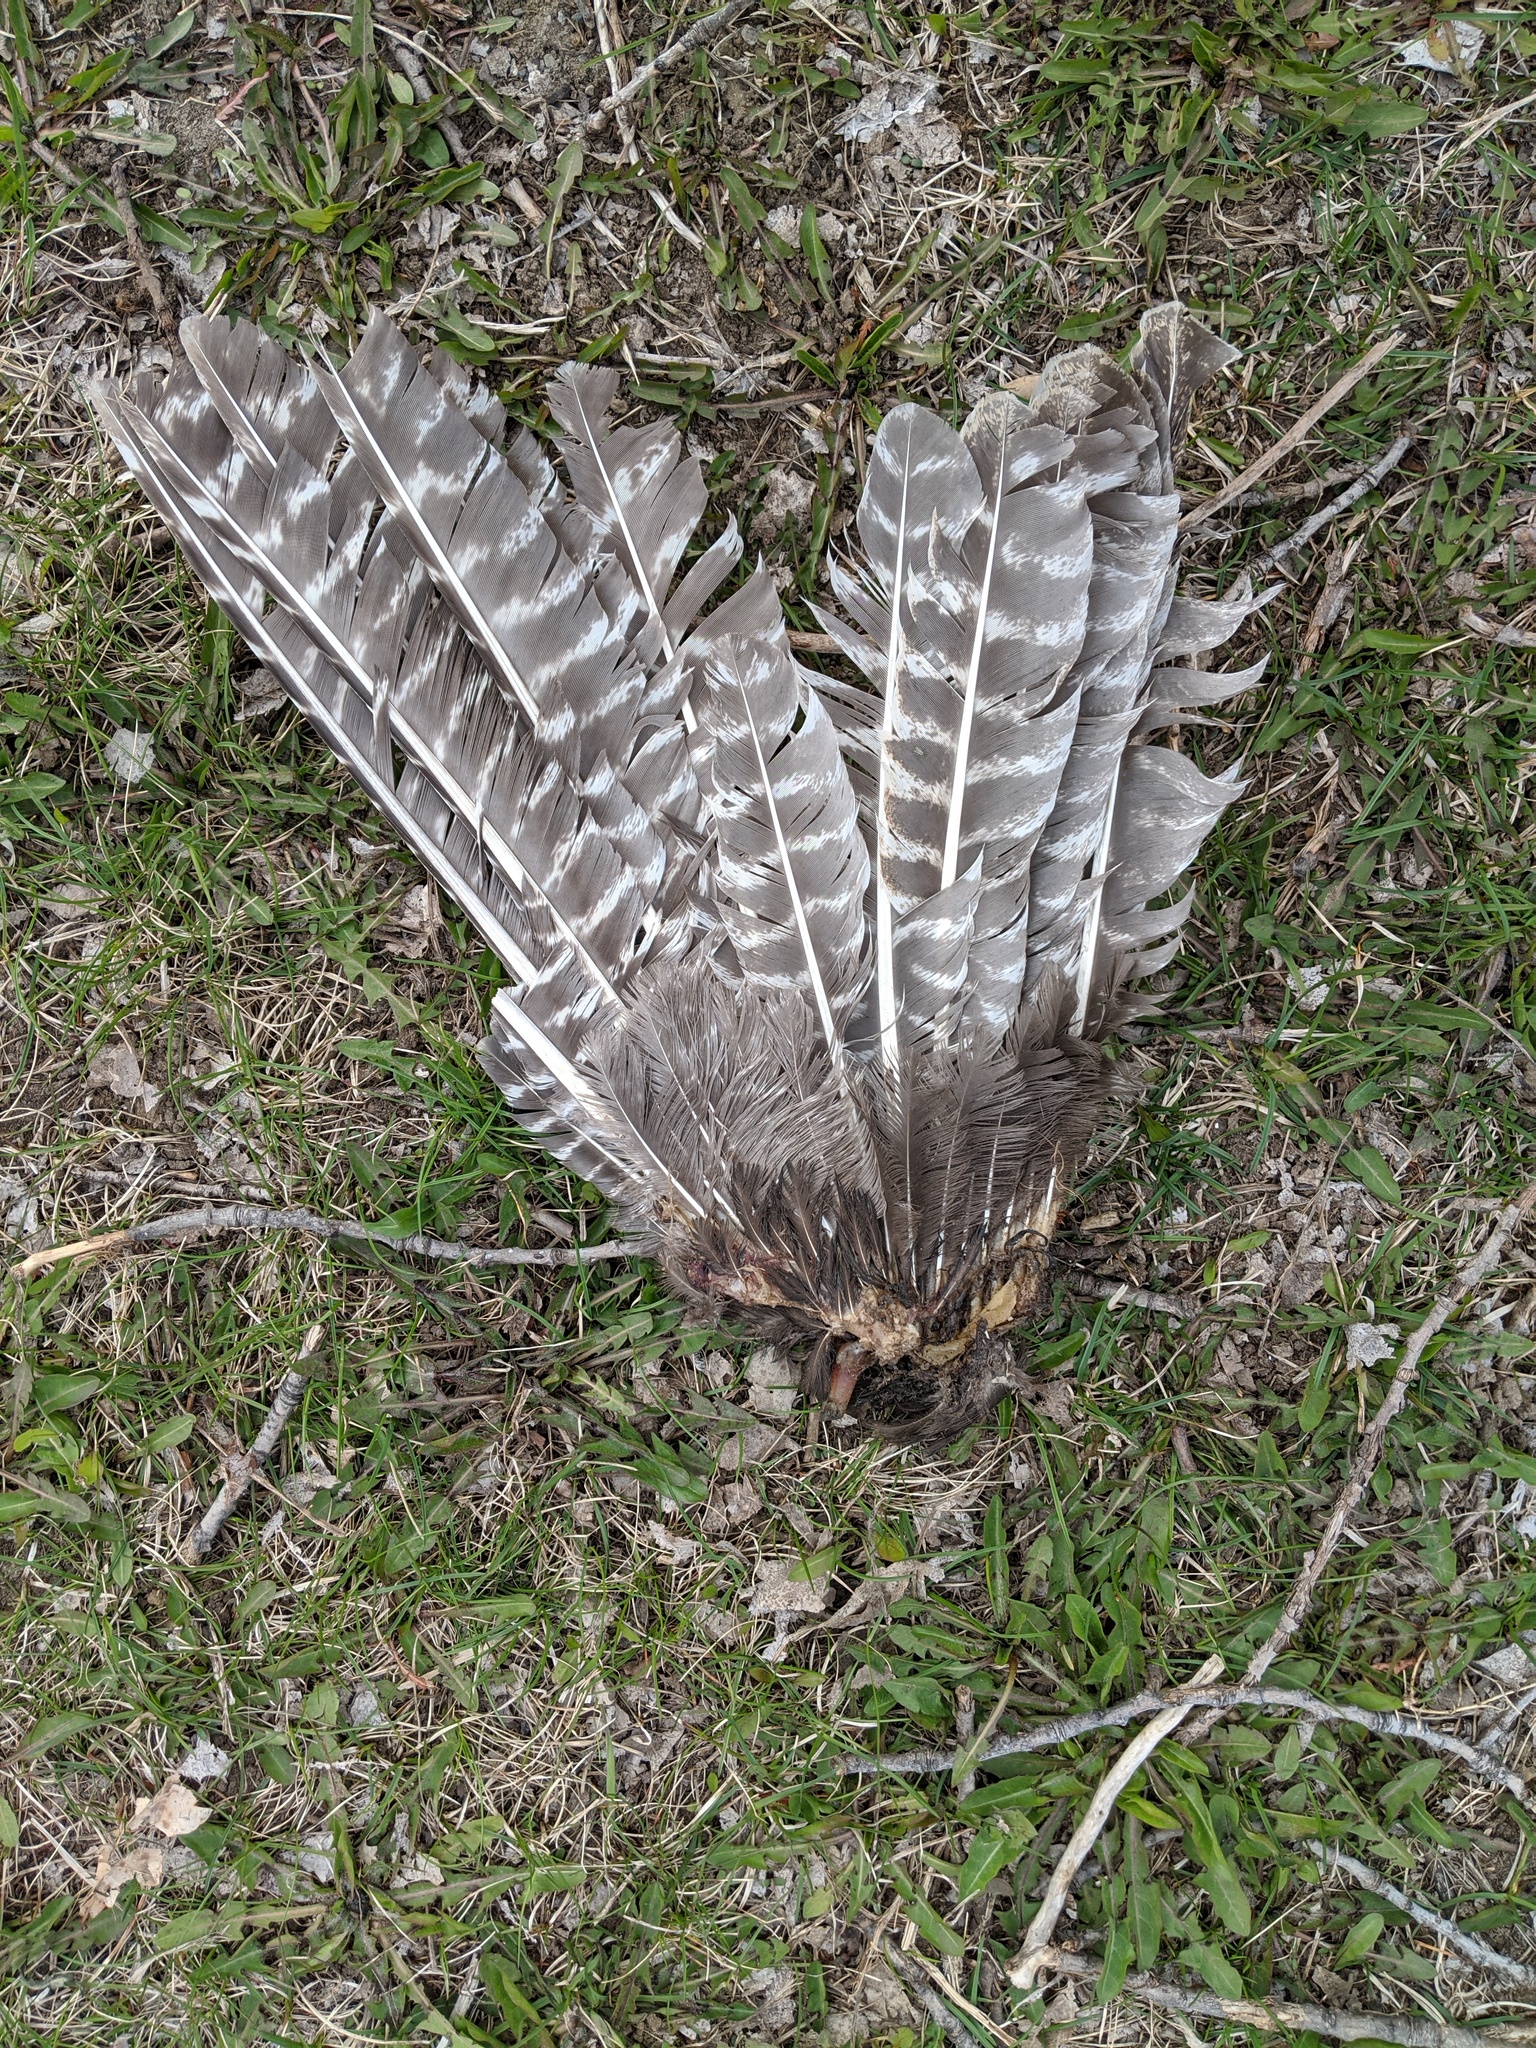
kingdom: Animalia
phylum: Chordata
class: Aves
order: Galliformes
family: Phasianidae
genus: Meleagris
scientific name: Meleagris gallopavo
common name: Wild turkey
